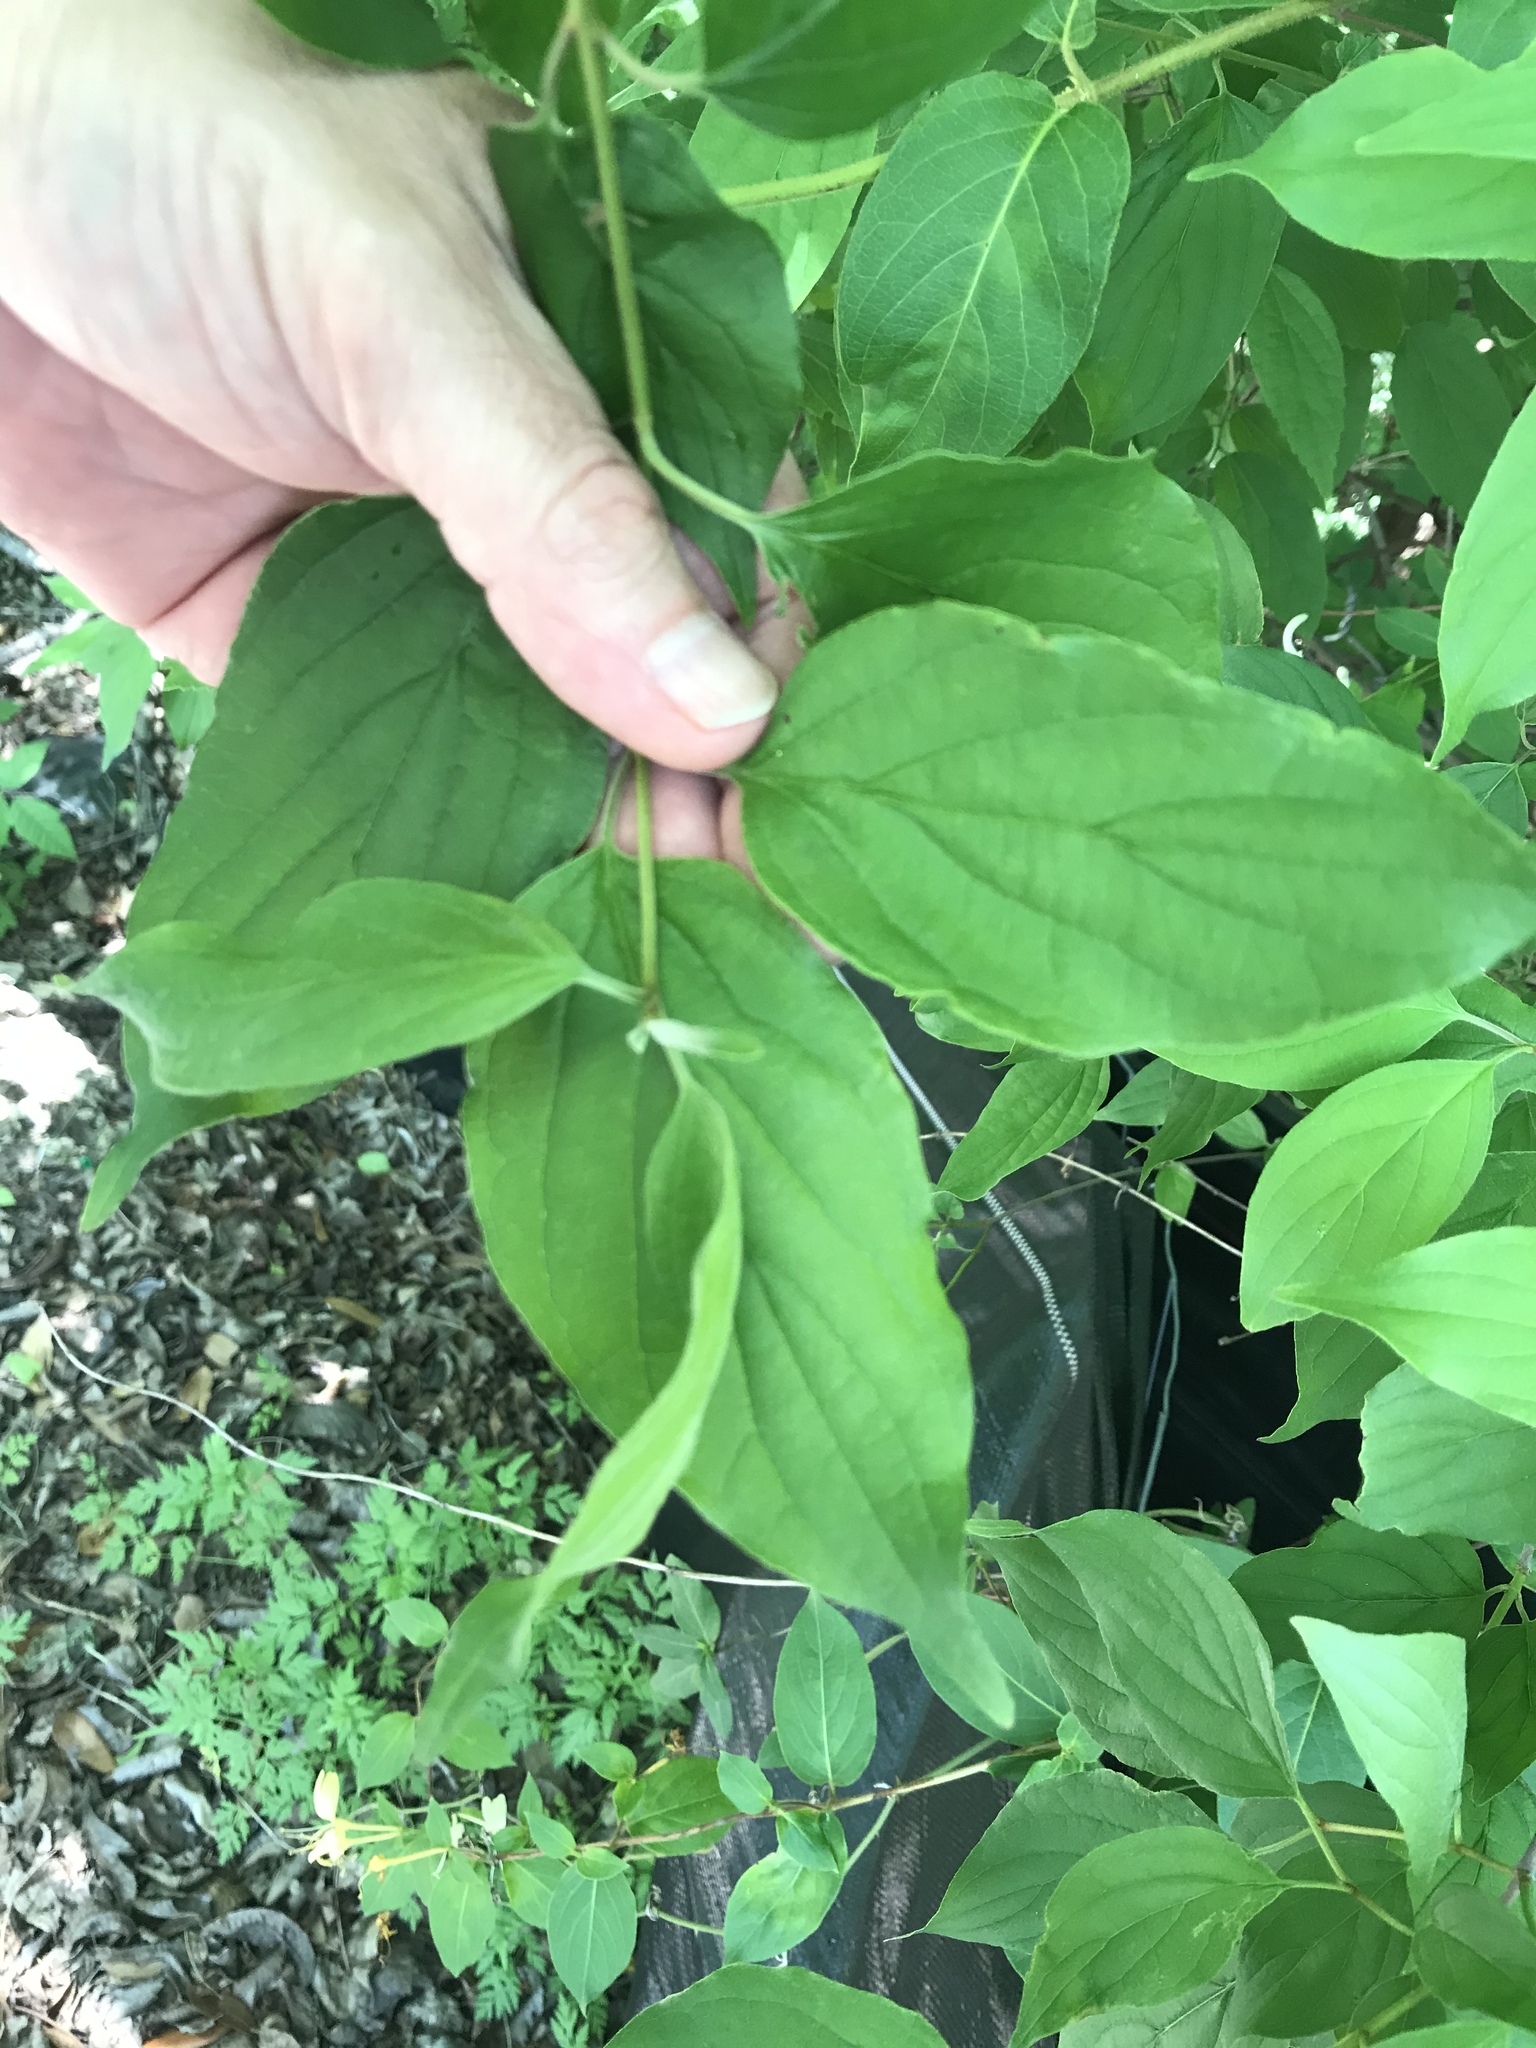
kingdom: Plantae
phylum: Tracheophyta
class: Magnoliopsida
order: Cornales
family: Cornaceae
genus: Cornus
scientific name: Cornus drummondii
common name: Rough-leaf dogwood
